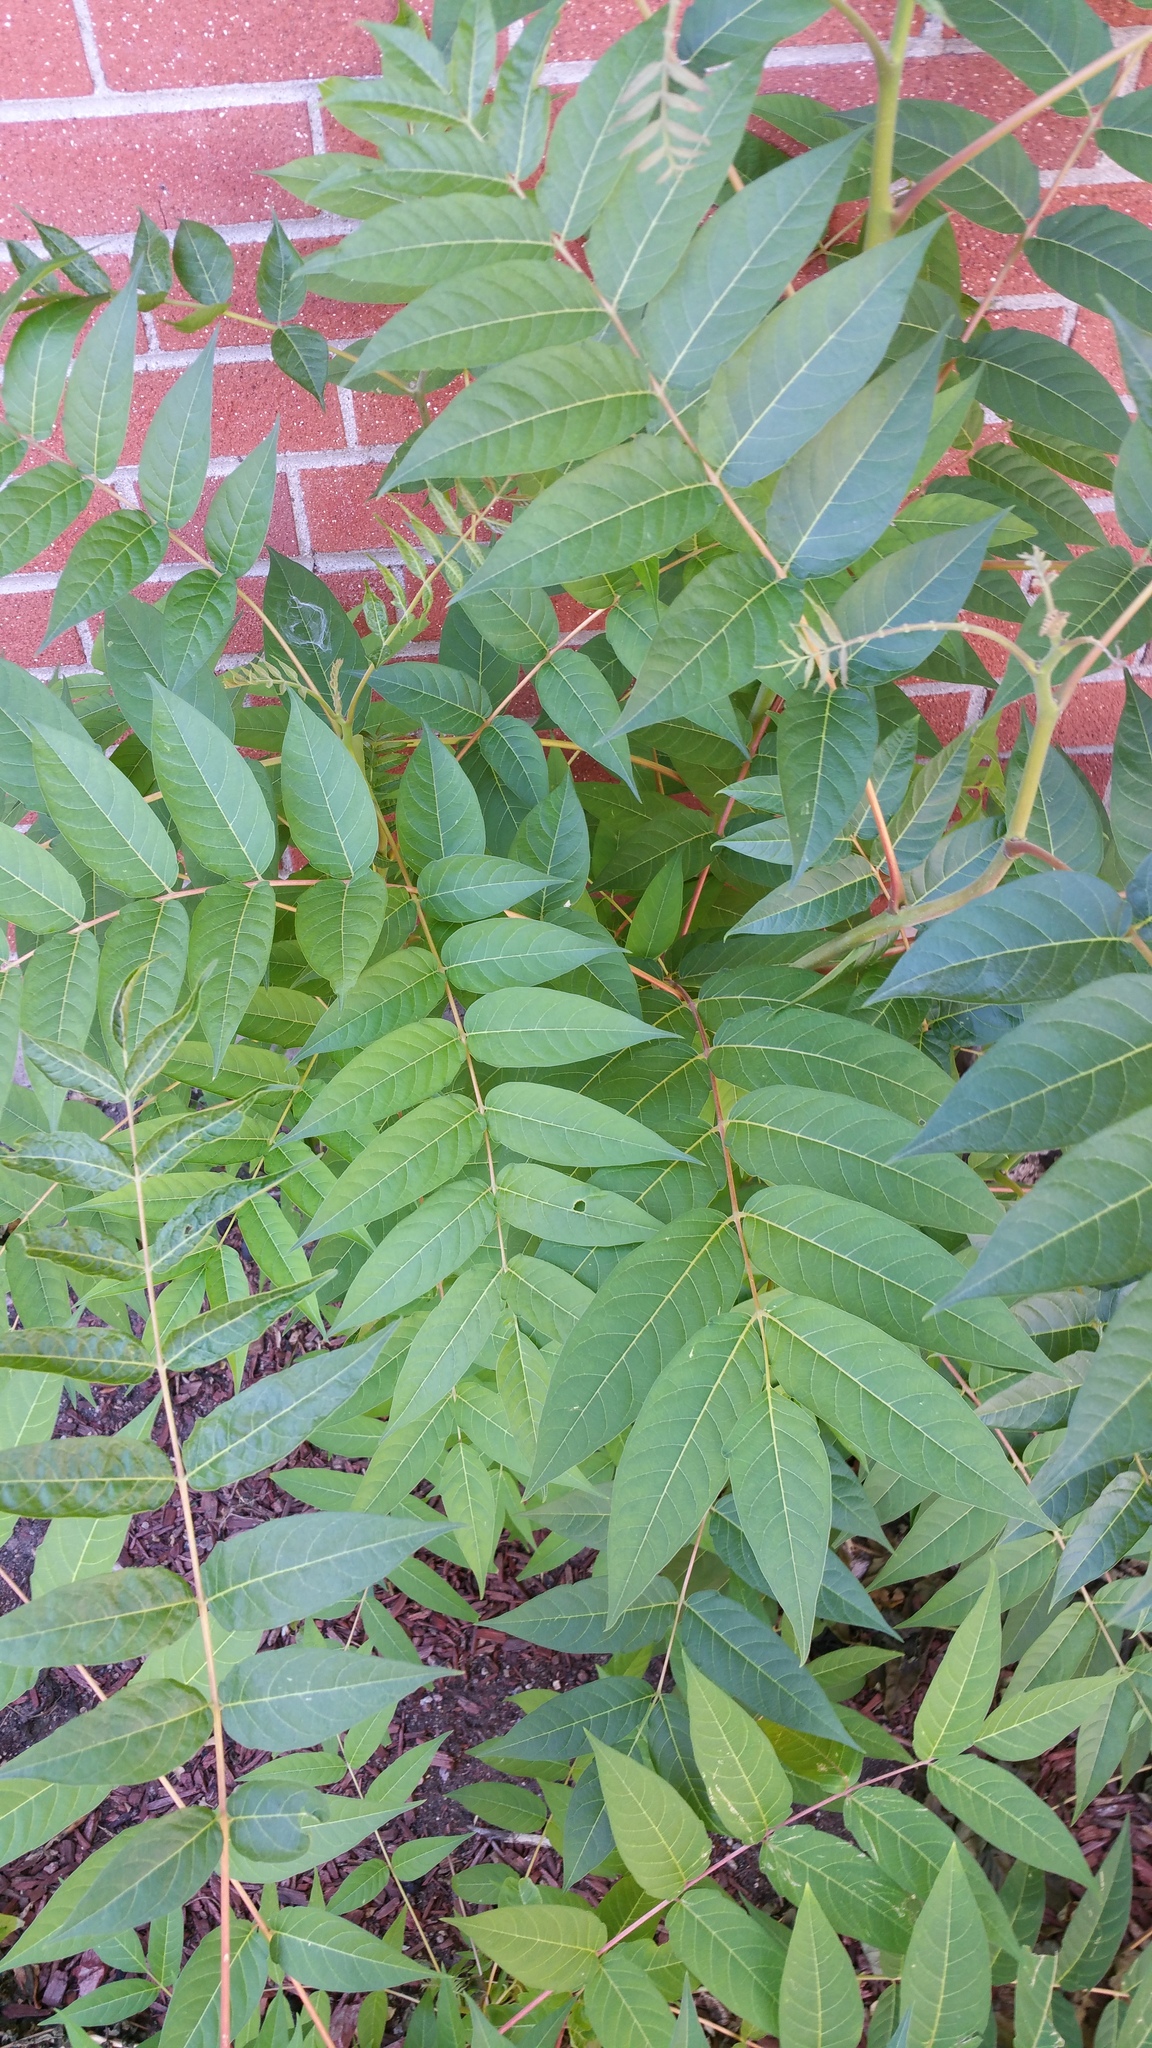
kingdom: Plantae
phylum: Tracheophyta
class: Magnoliopsida
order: Sapindales
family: Simaroubaceae
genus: Ailanthus
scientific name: Ailanthus altissima
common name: Tree-of-heaven
